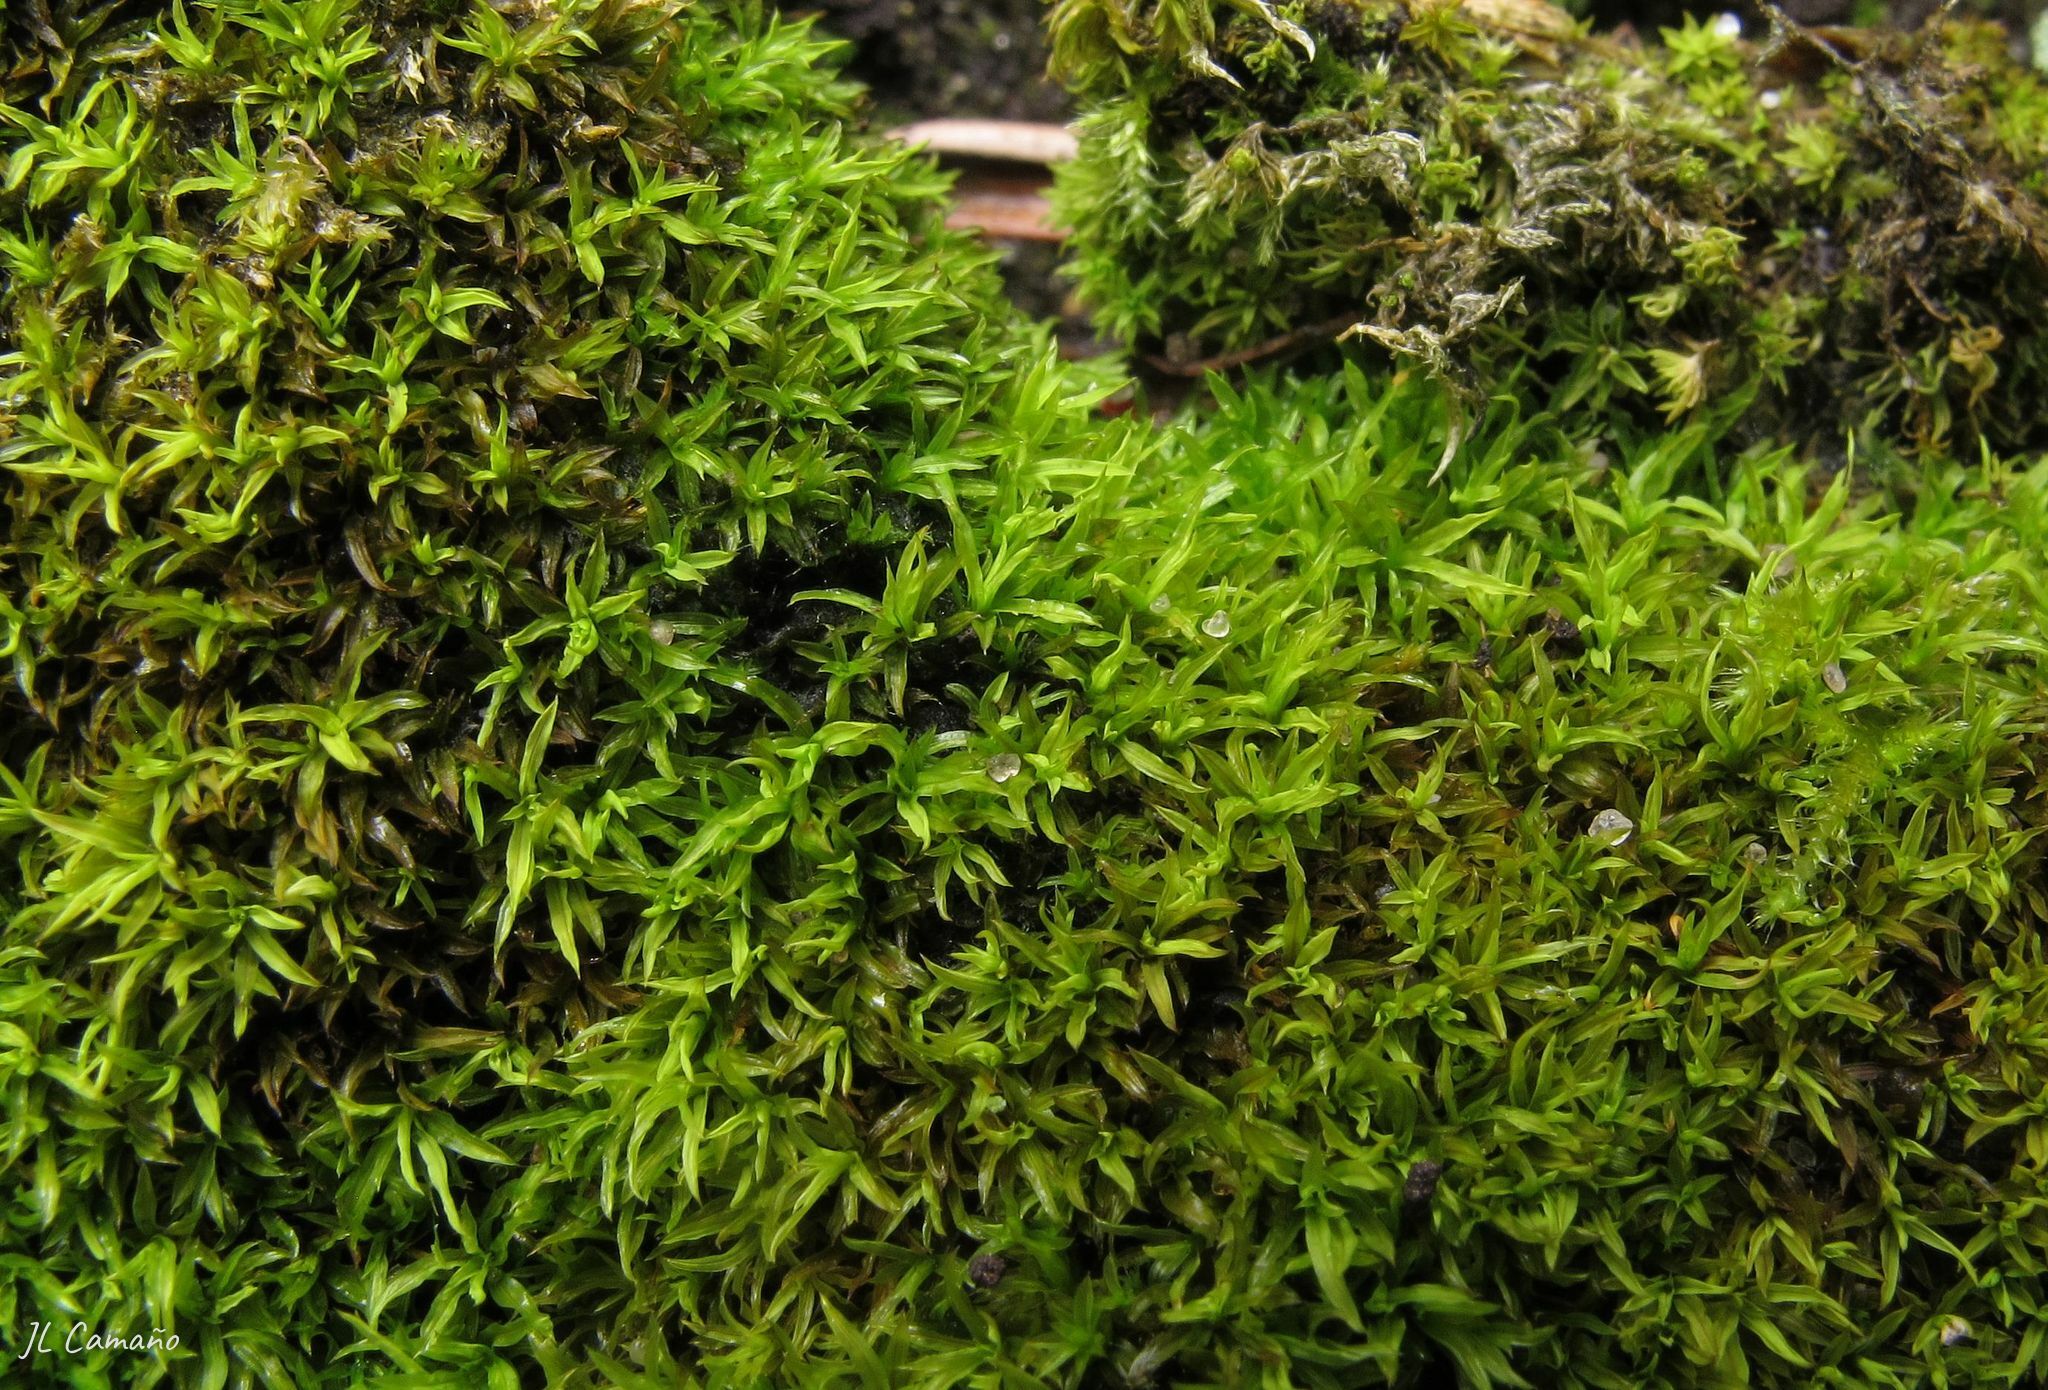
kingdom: Plantae
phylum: Bryophyta
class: Bryopsida
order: Pottiales
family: Pottiaceae
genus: Trichostomum
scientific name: Trichostomum brachydontium
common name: Variable crisp-moss
